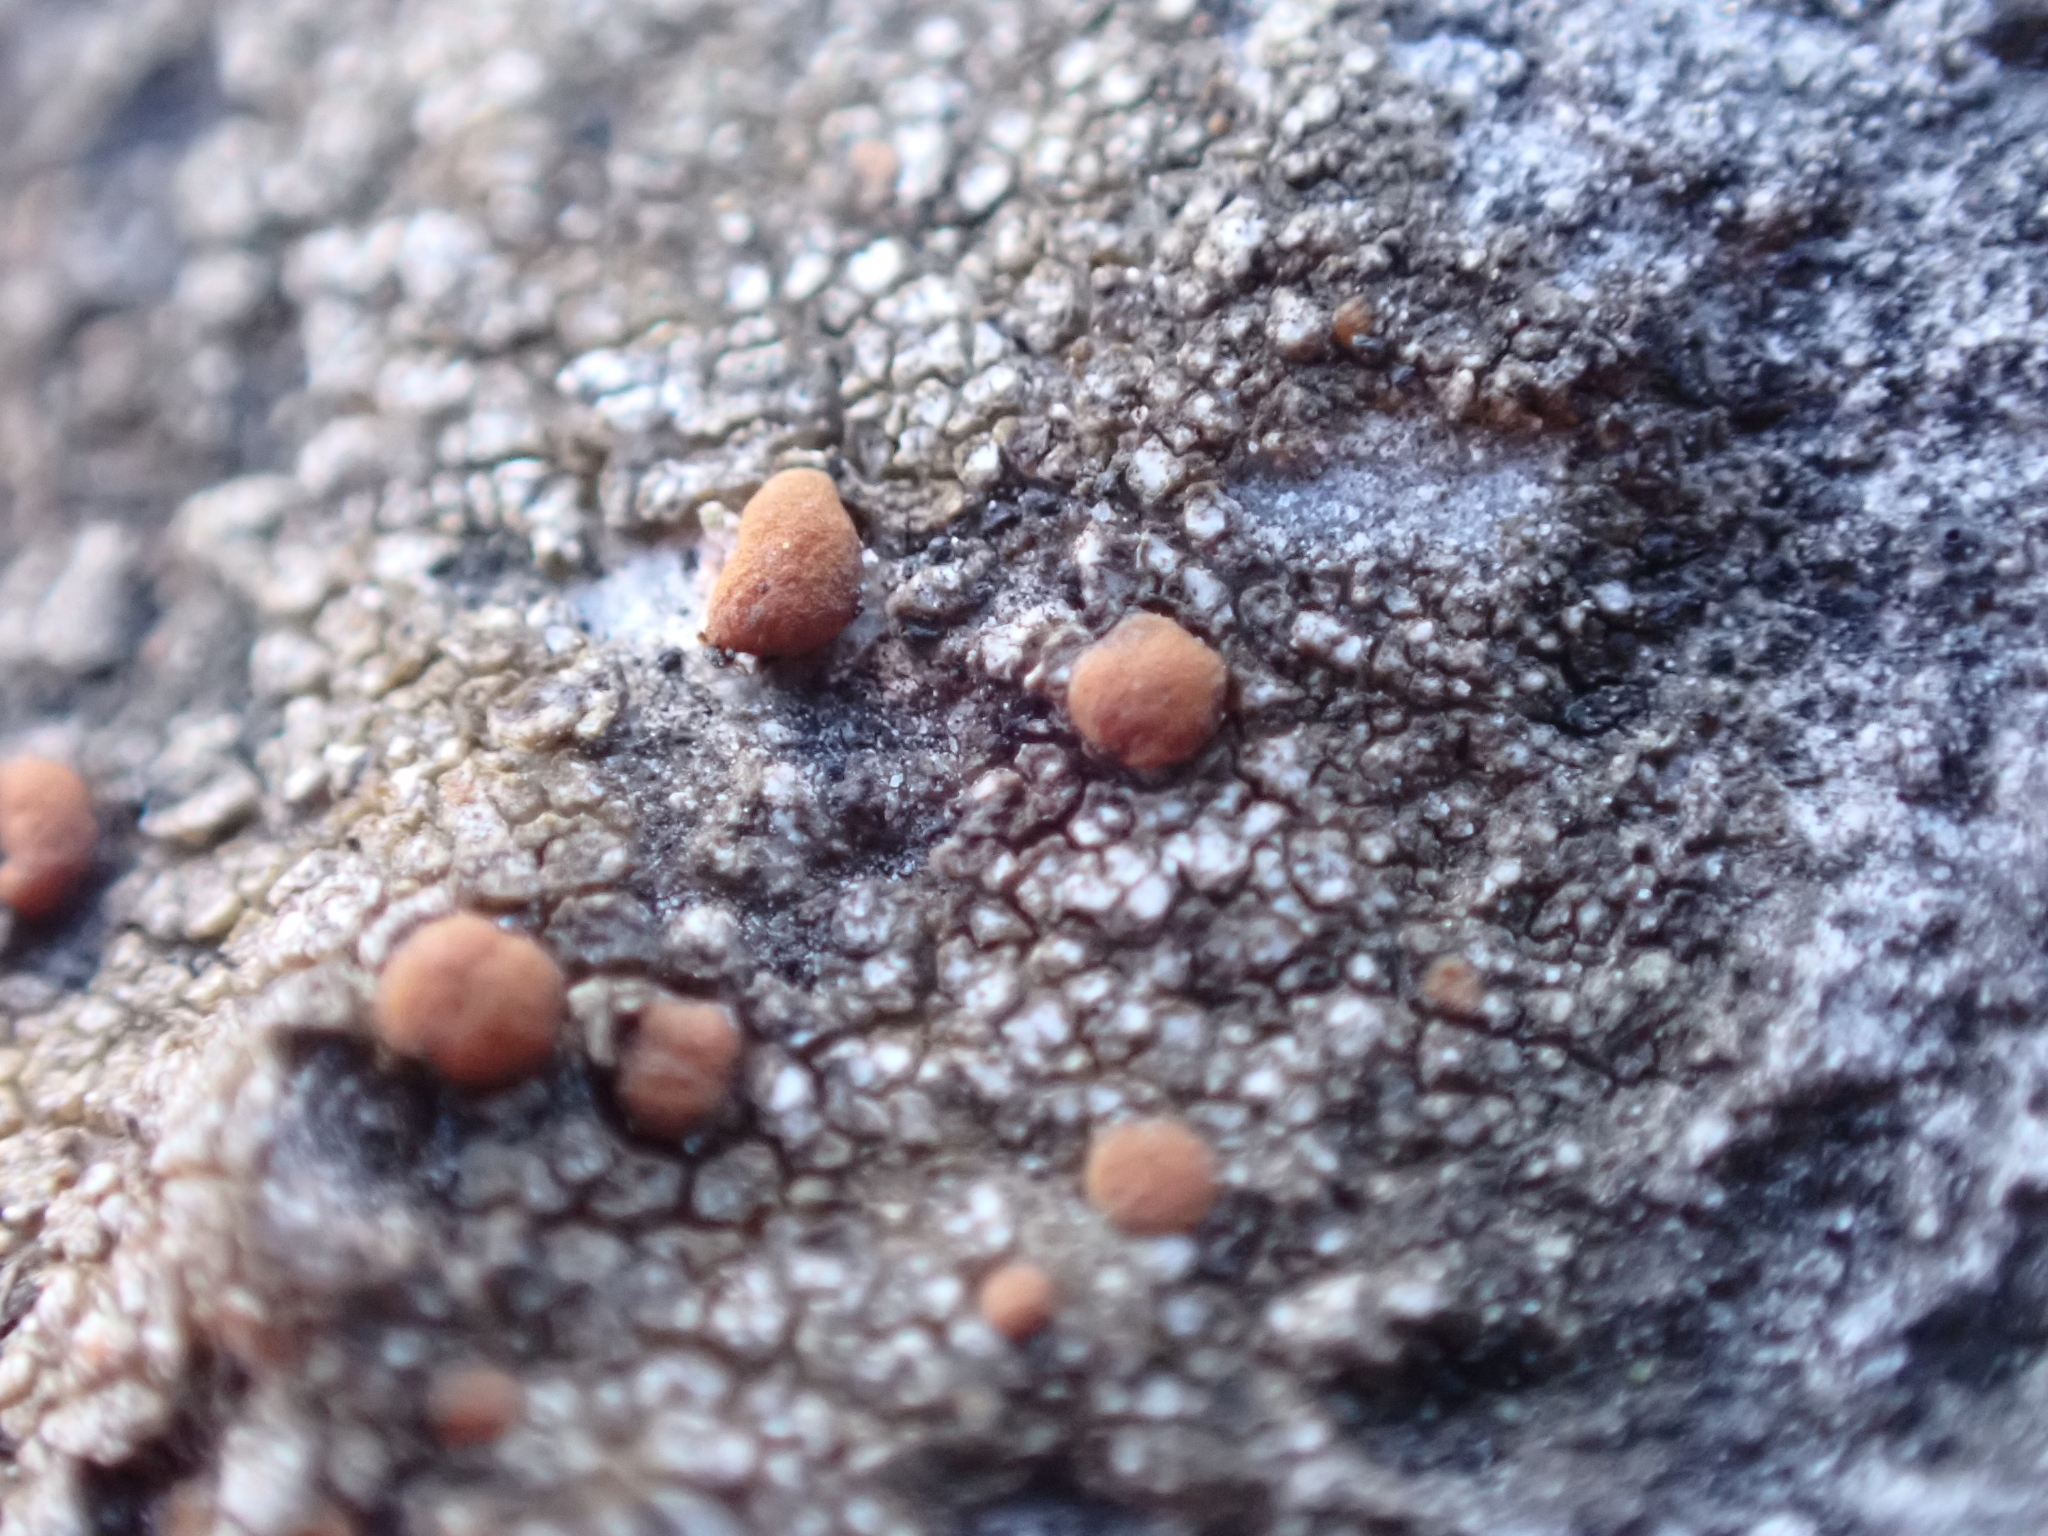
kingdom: Fungi
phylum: Ascomycota
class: Lecanoromycetes
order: Lecanorales
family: Psoraceae
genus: Protoblastenia
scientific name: Protoblastenia rupestris
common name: Chewing gum lichen
